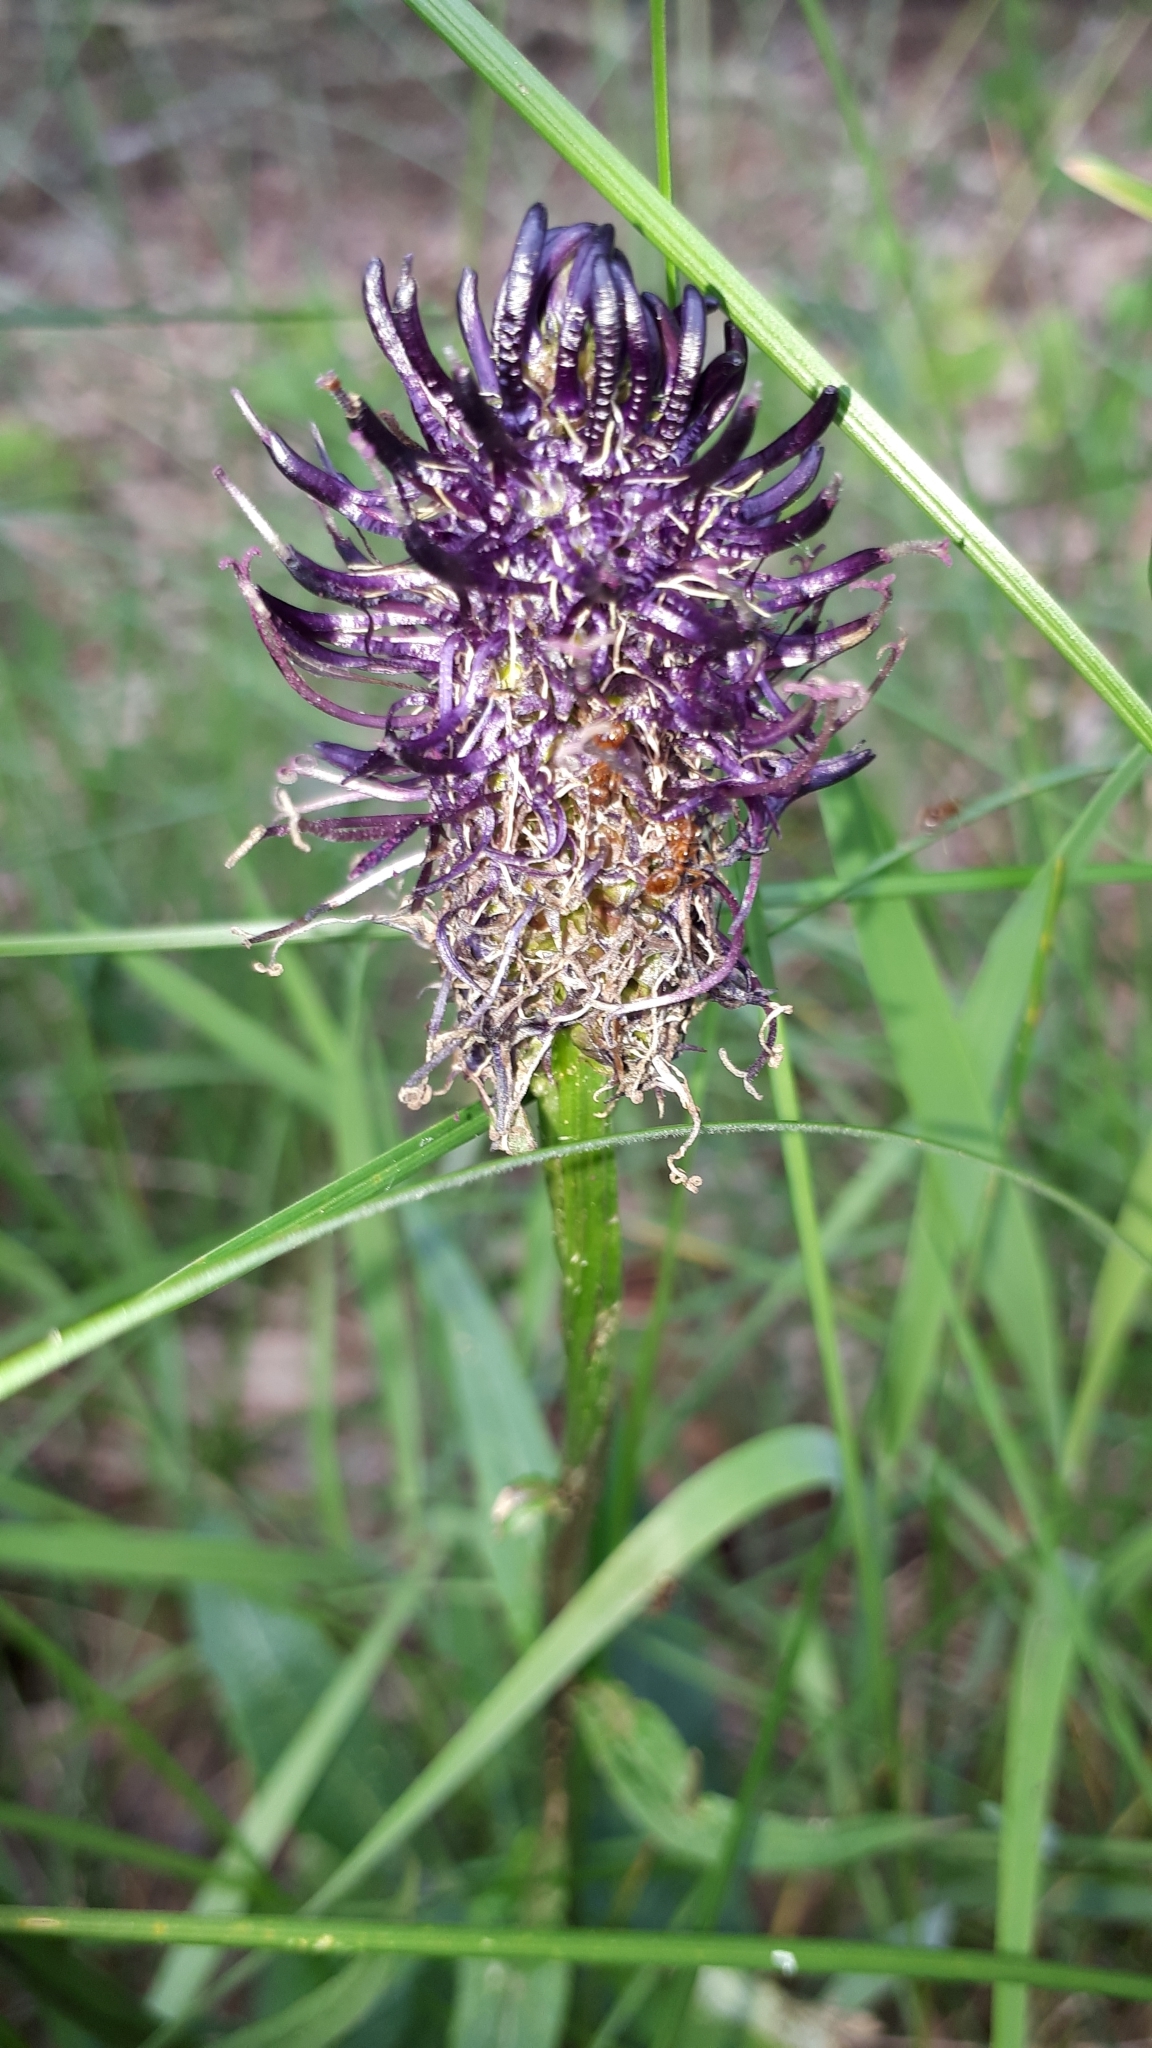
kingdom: Plantae
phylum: Tracheophyta
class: Magnoliopsida
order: Asterales
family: Campanulaceae
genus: Phyteuma
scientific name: Phyteuma nigrum
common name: Black rampion
